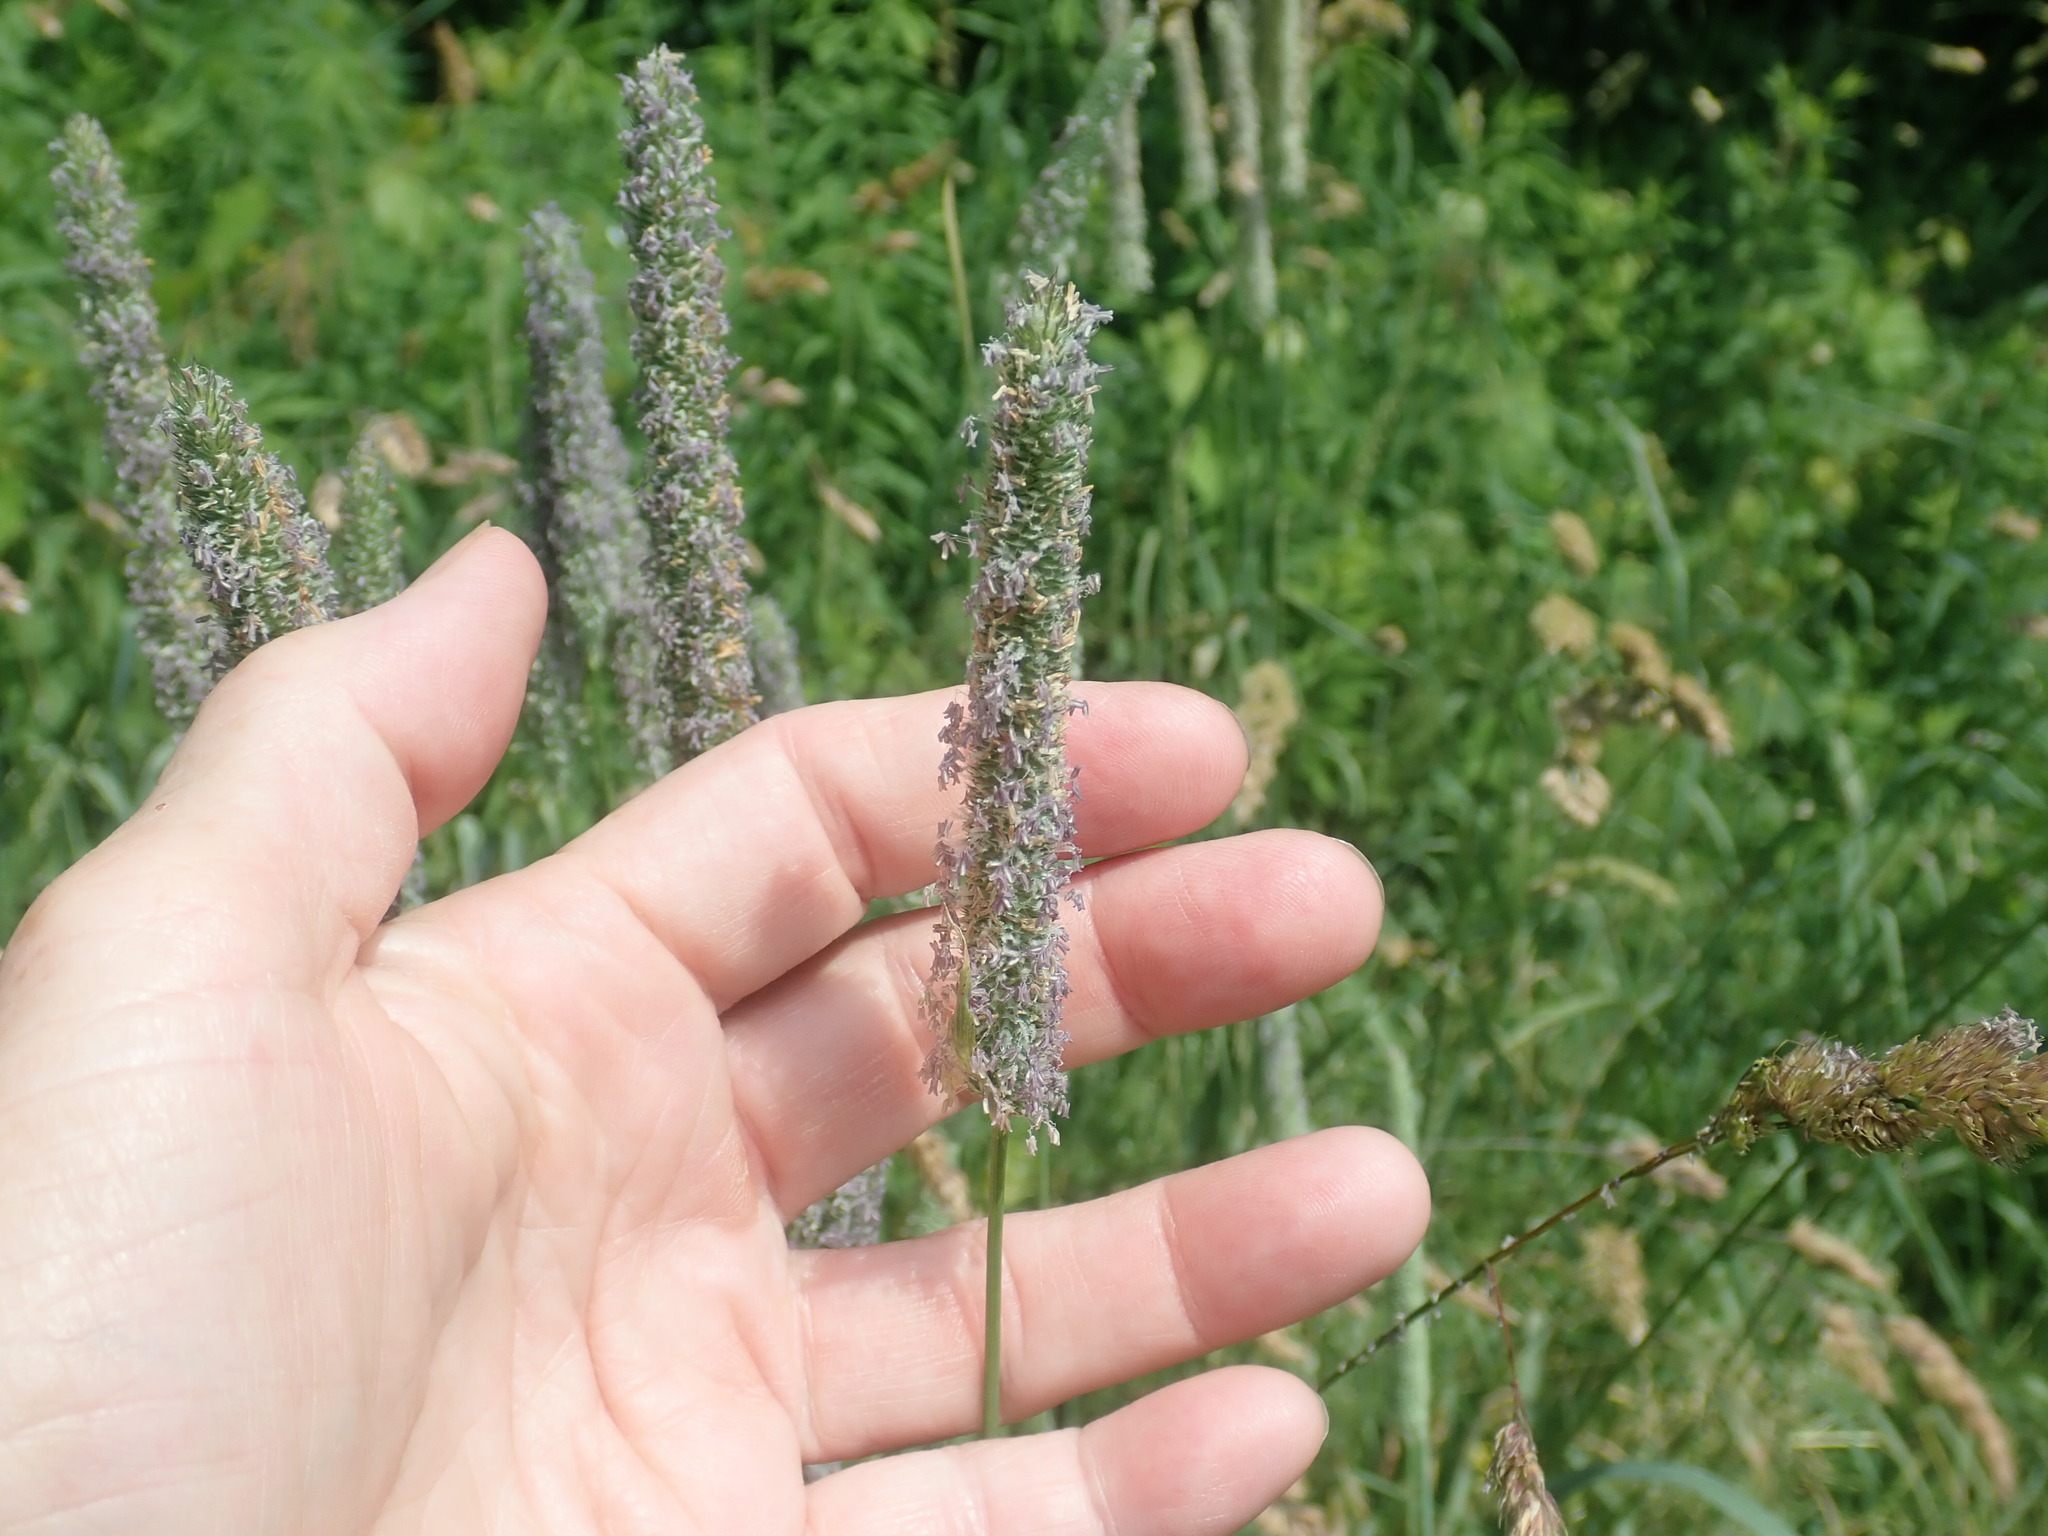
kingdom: Plantae
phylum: Tracheophyta
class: Liliopsida
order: Poales
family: Poaceae
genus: Phleum
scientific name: Phleum pratense
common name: Timothy grass
